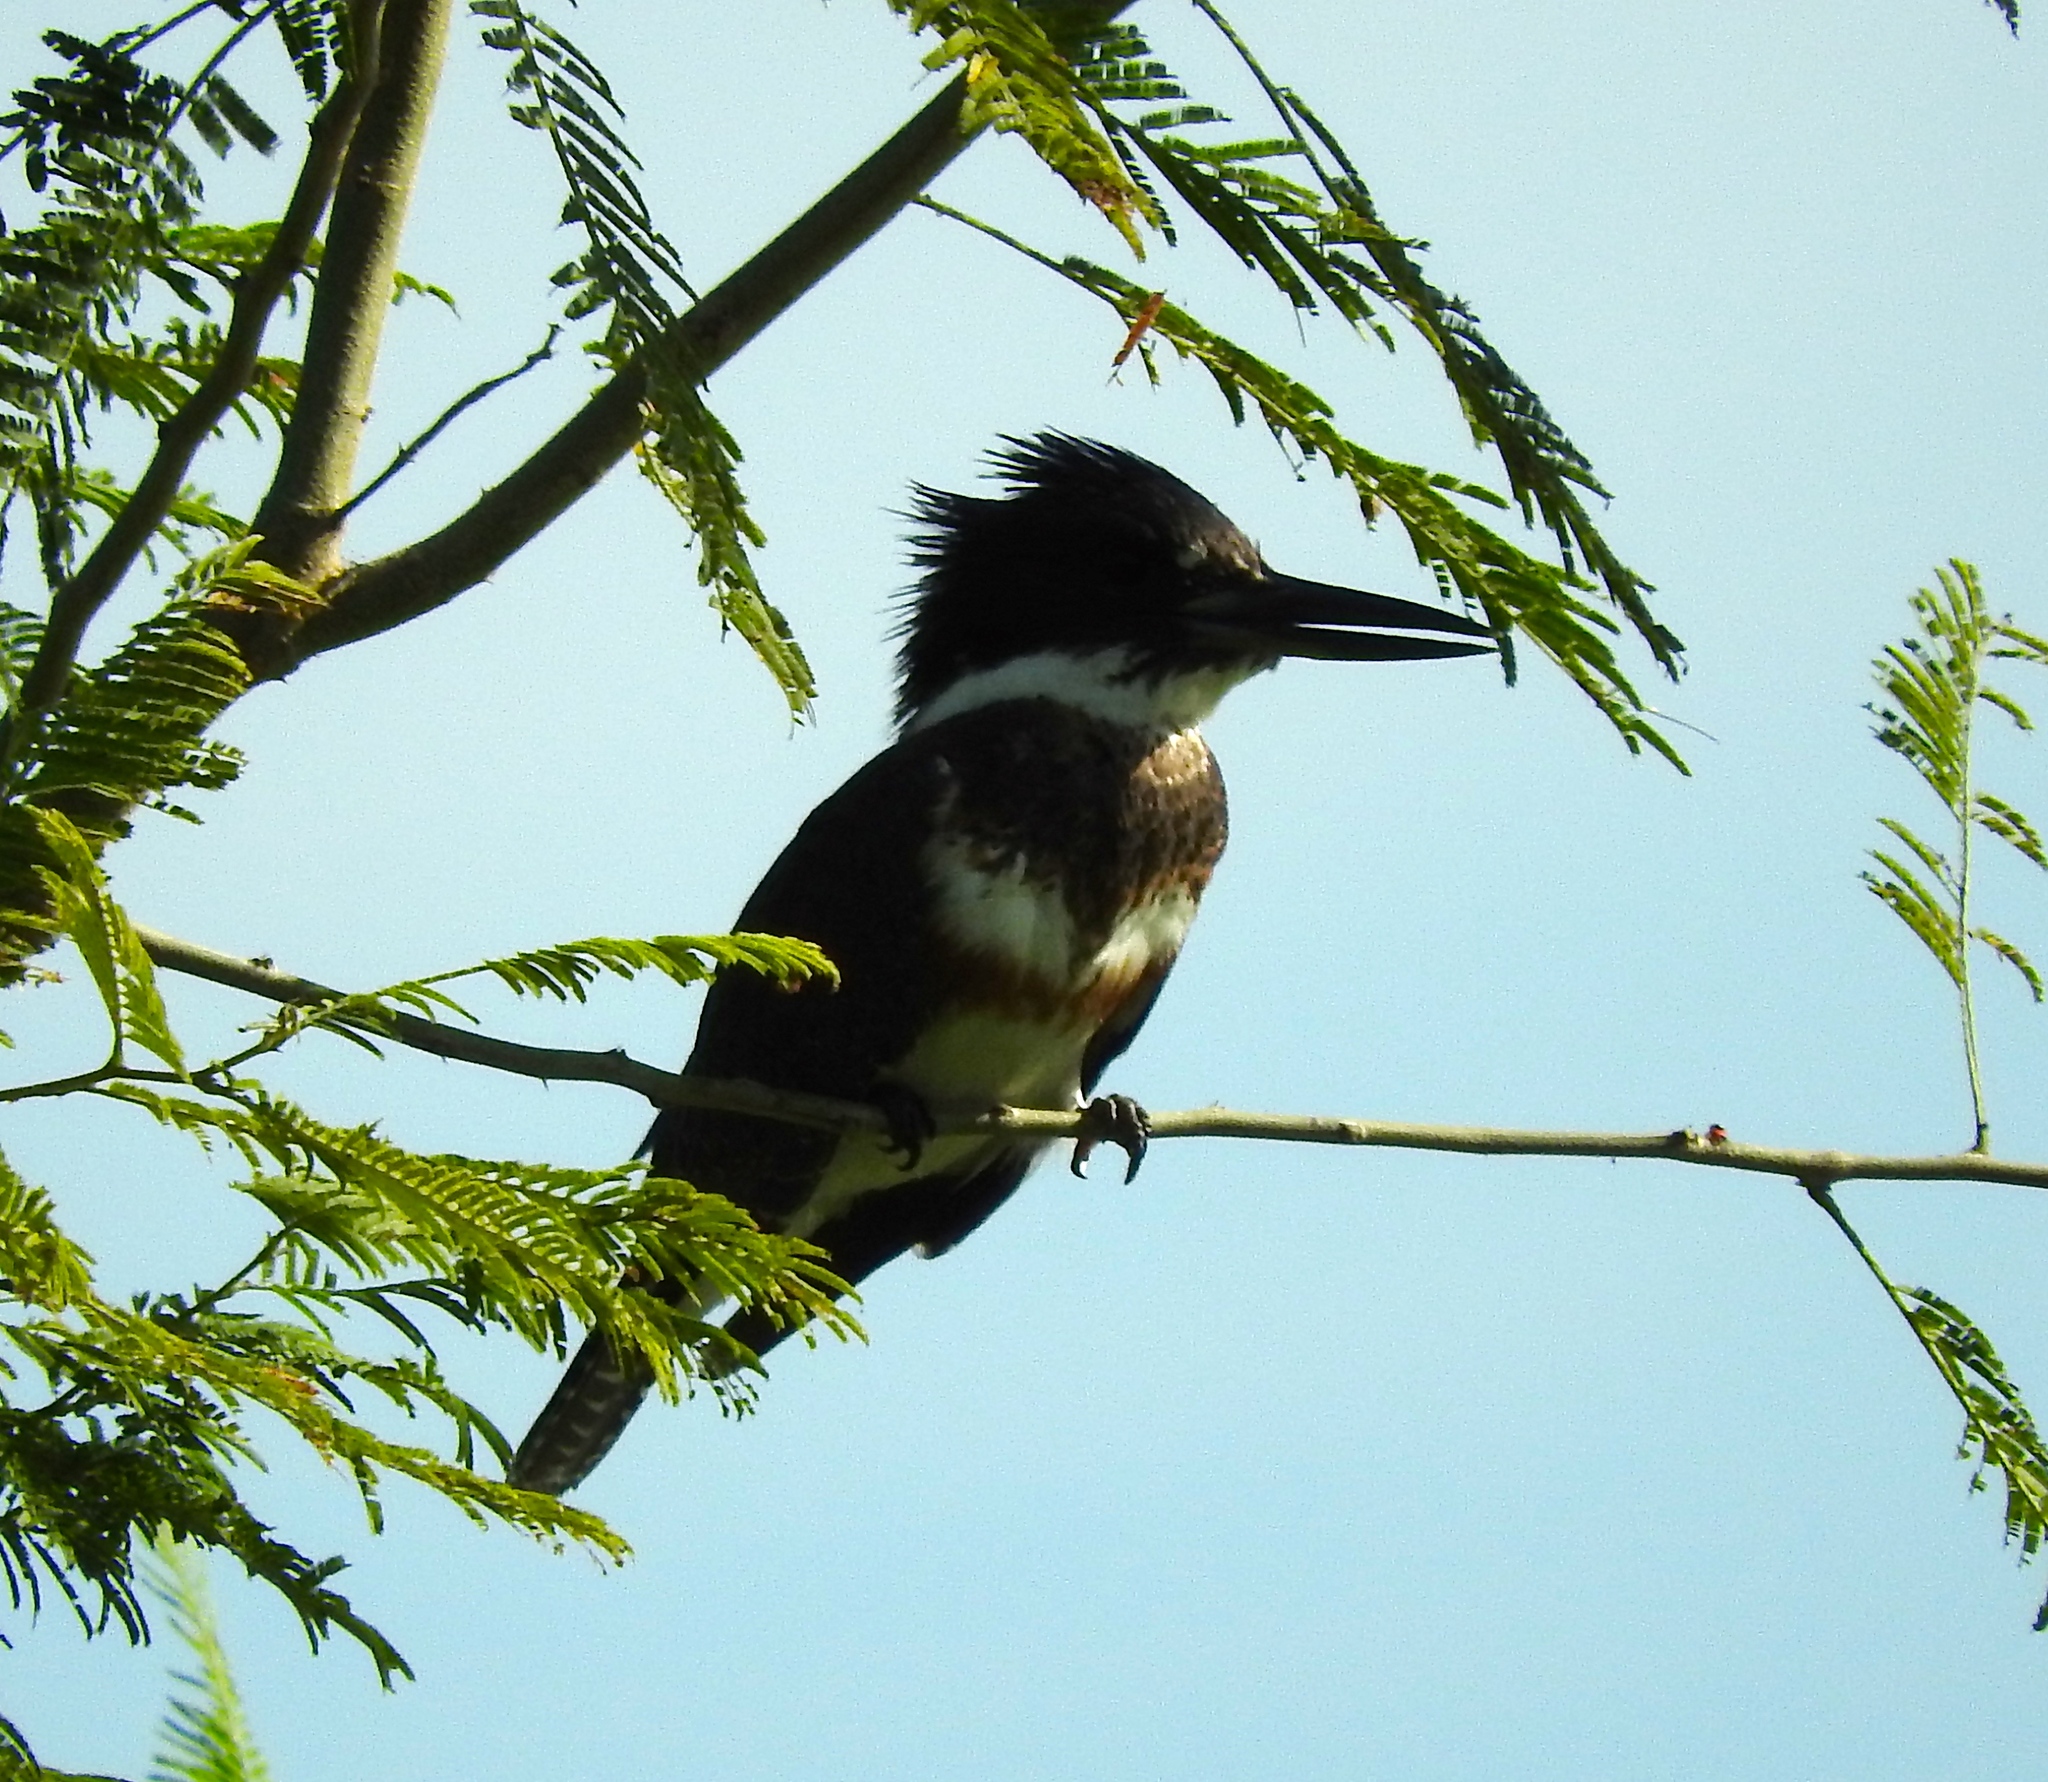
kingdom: Animalia
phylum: Chordata
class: Aves
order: Coraciiformes
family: Alcedinidae
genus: Megaceryle
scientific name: Megaceryle alcyon
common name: Belted kingfisher
